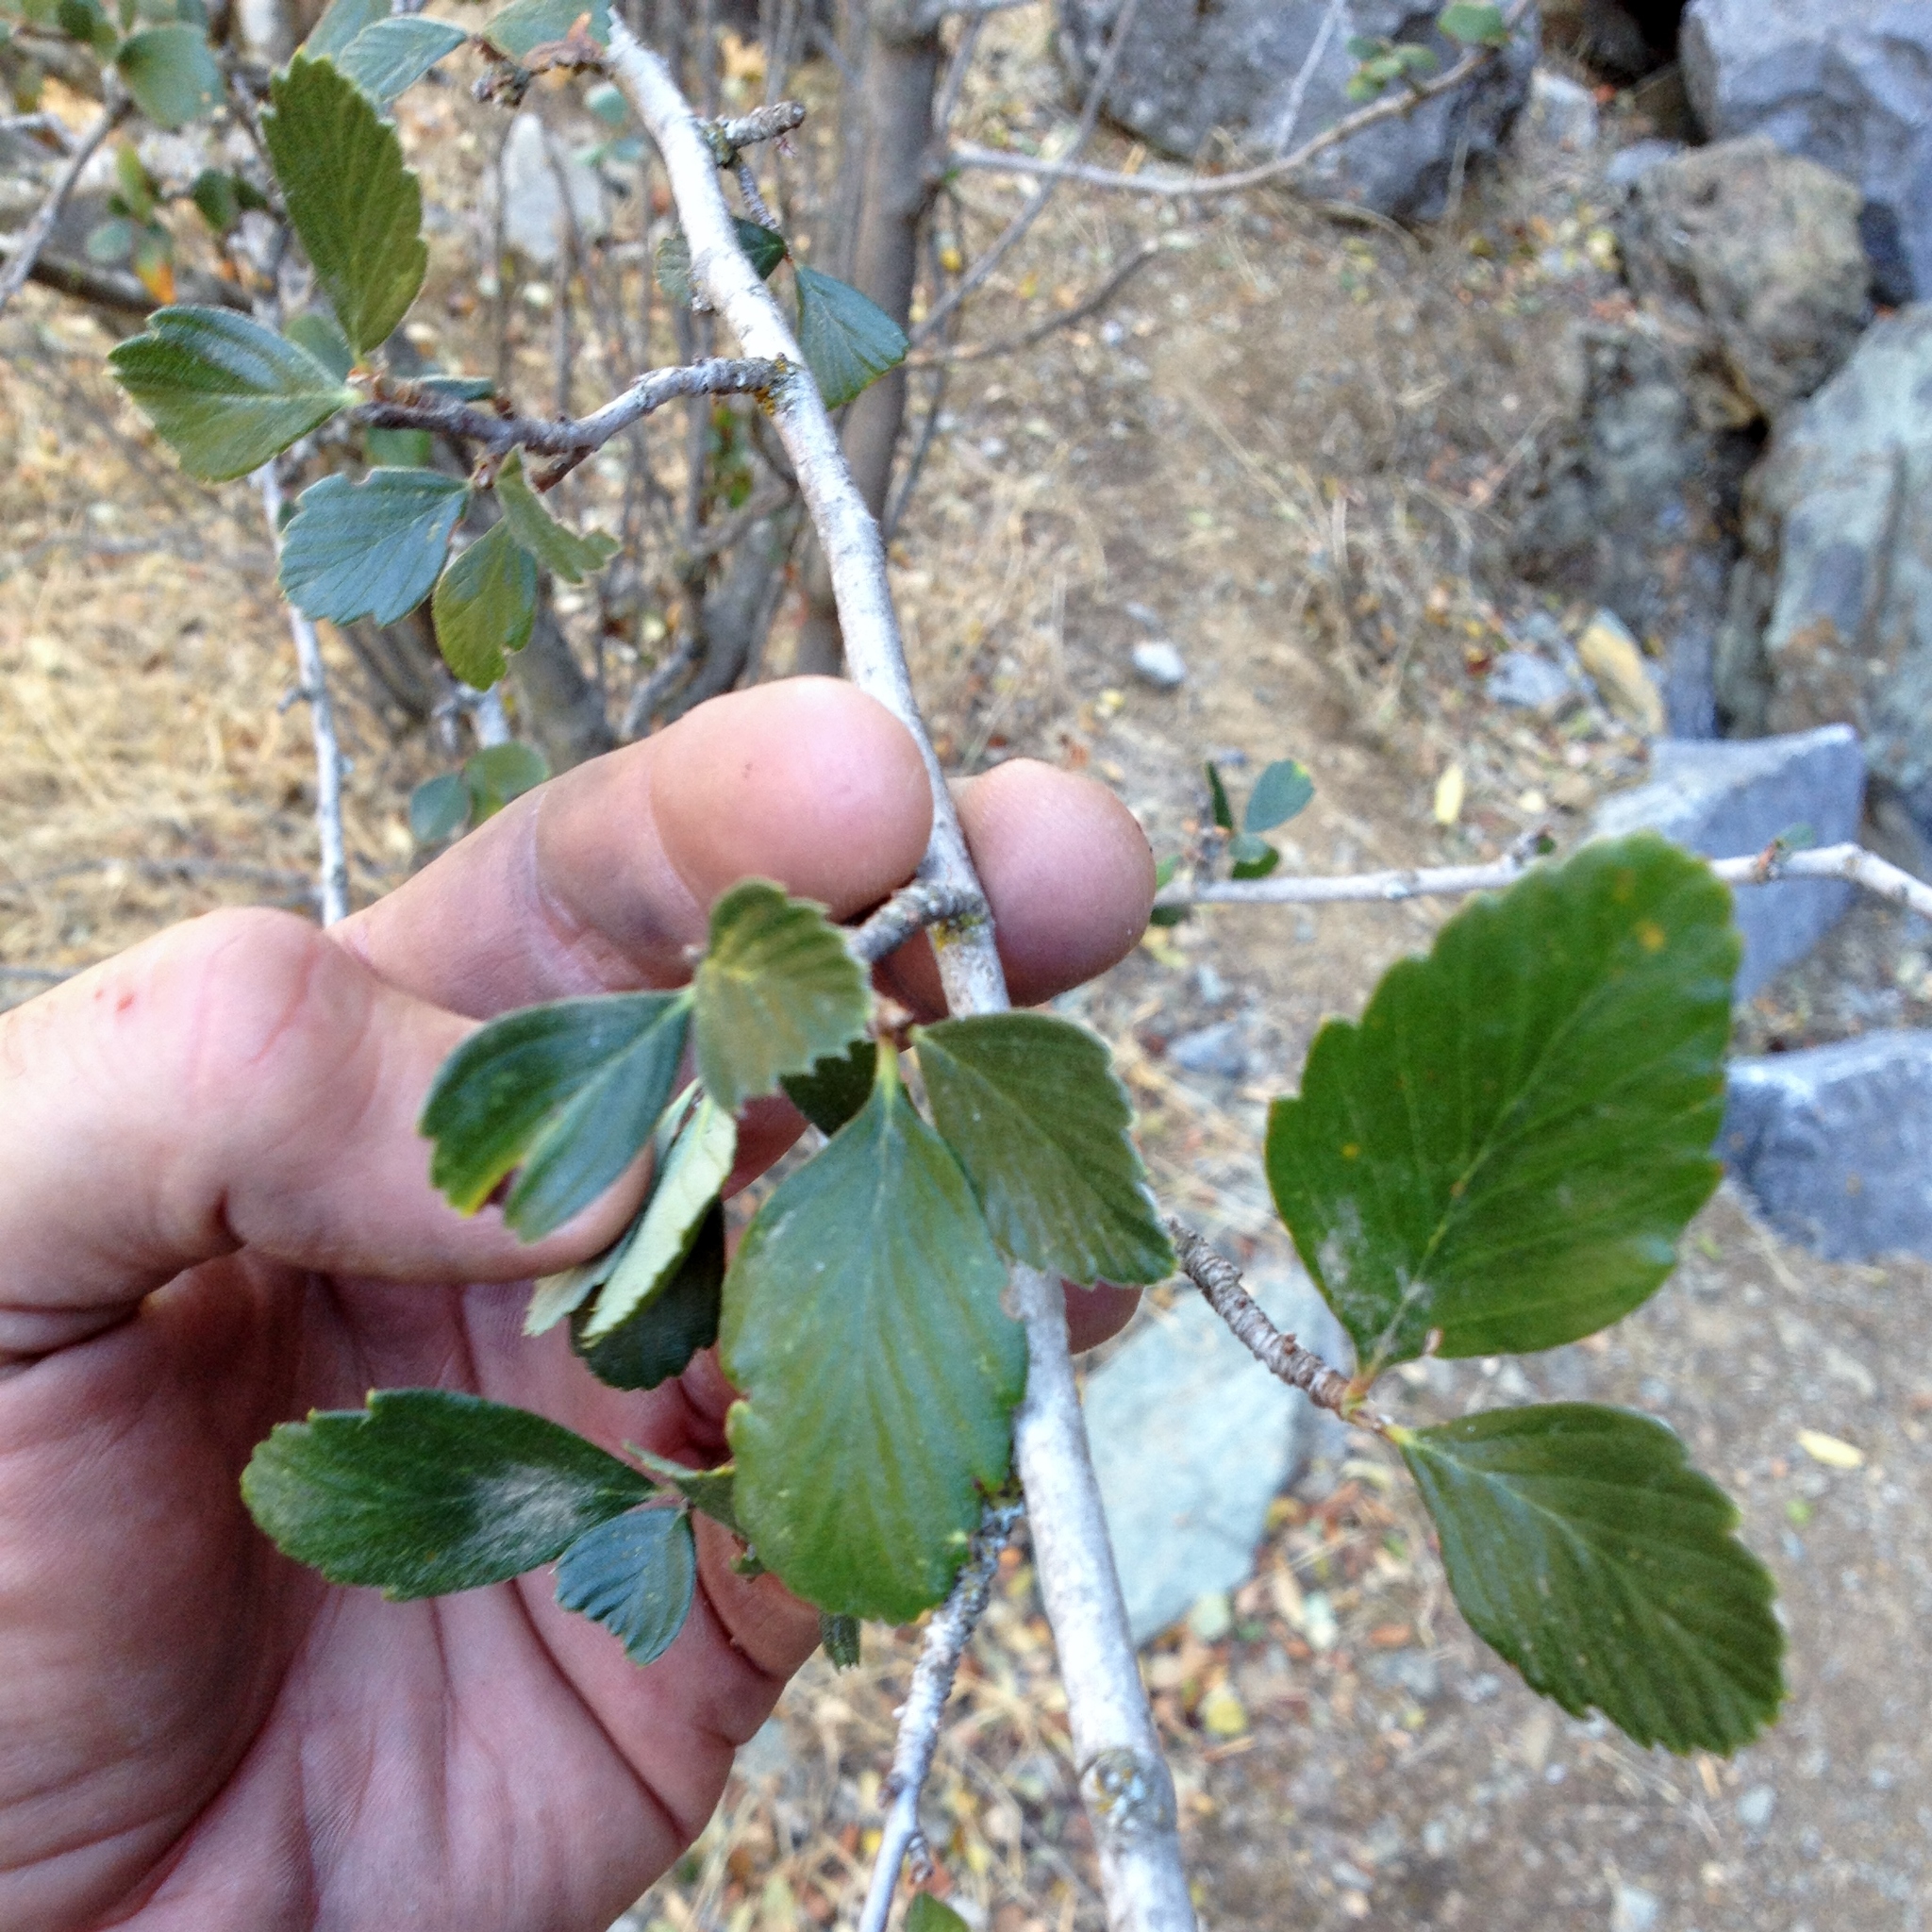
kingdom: Plantae
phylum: Tracheophyta
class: Magnoliopsida
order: Rosales
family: Rosaceae
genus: Cercocarpus
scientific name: Cercocarpus betuloides
